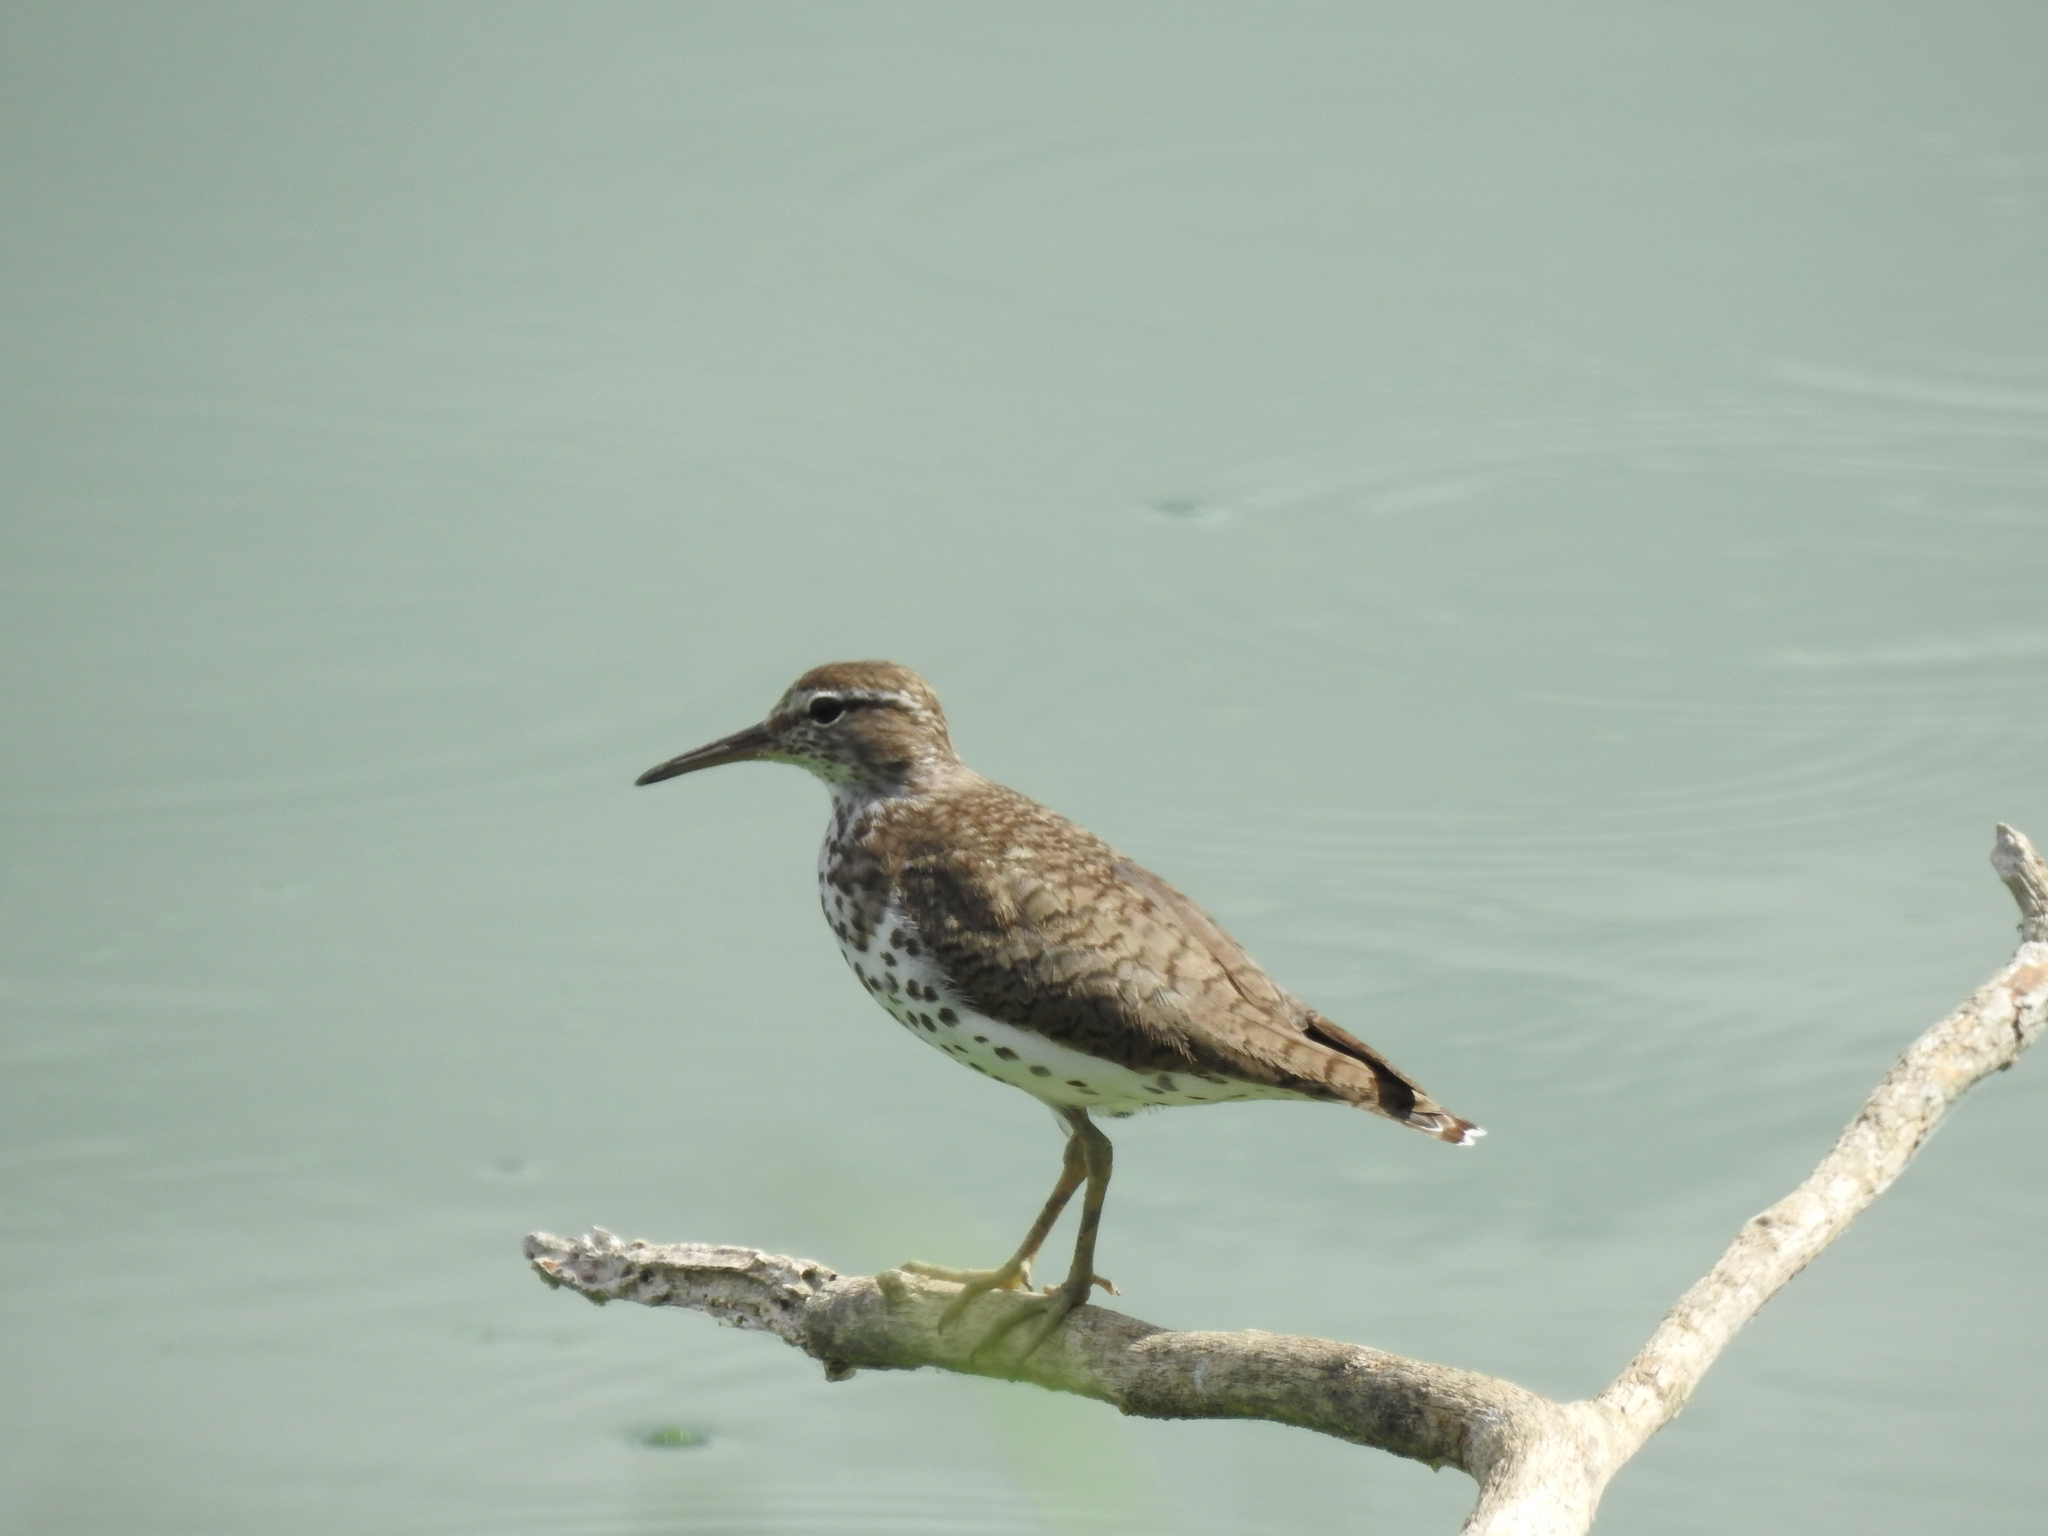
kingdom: Animalia
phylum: Chordata
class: Aves
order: Charadriiformes
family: Scolopacidae
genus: Actitis
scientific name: Actitis macularius
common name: Spotted sandpiper
